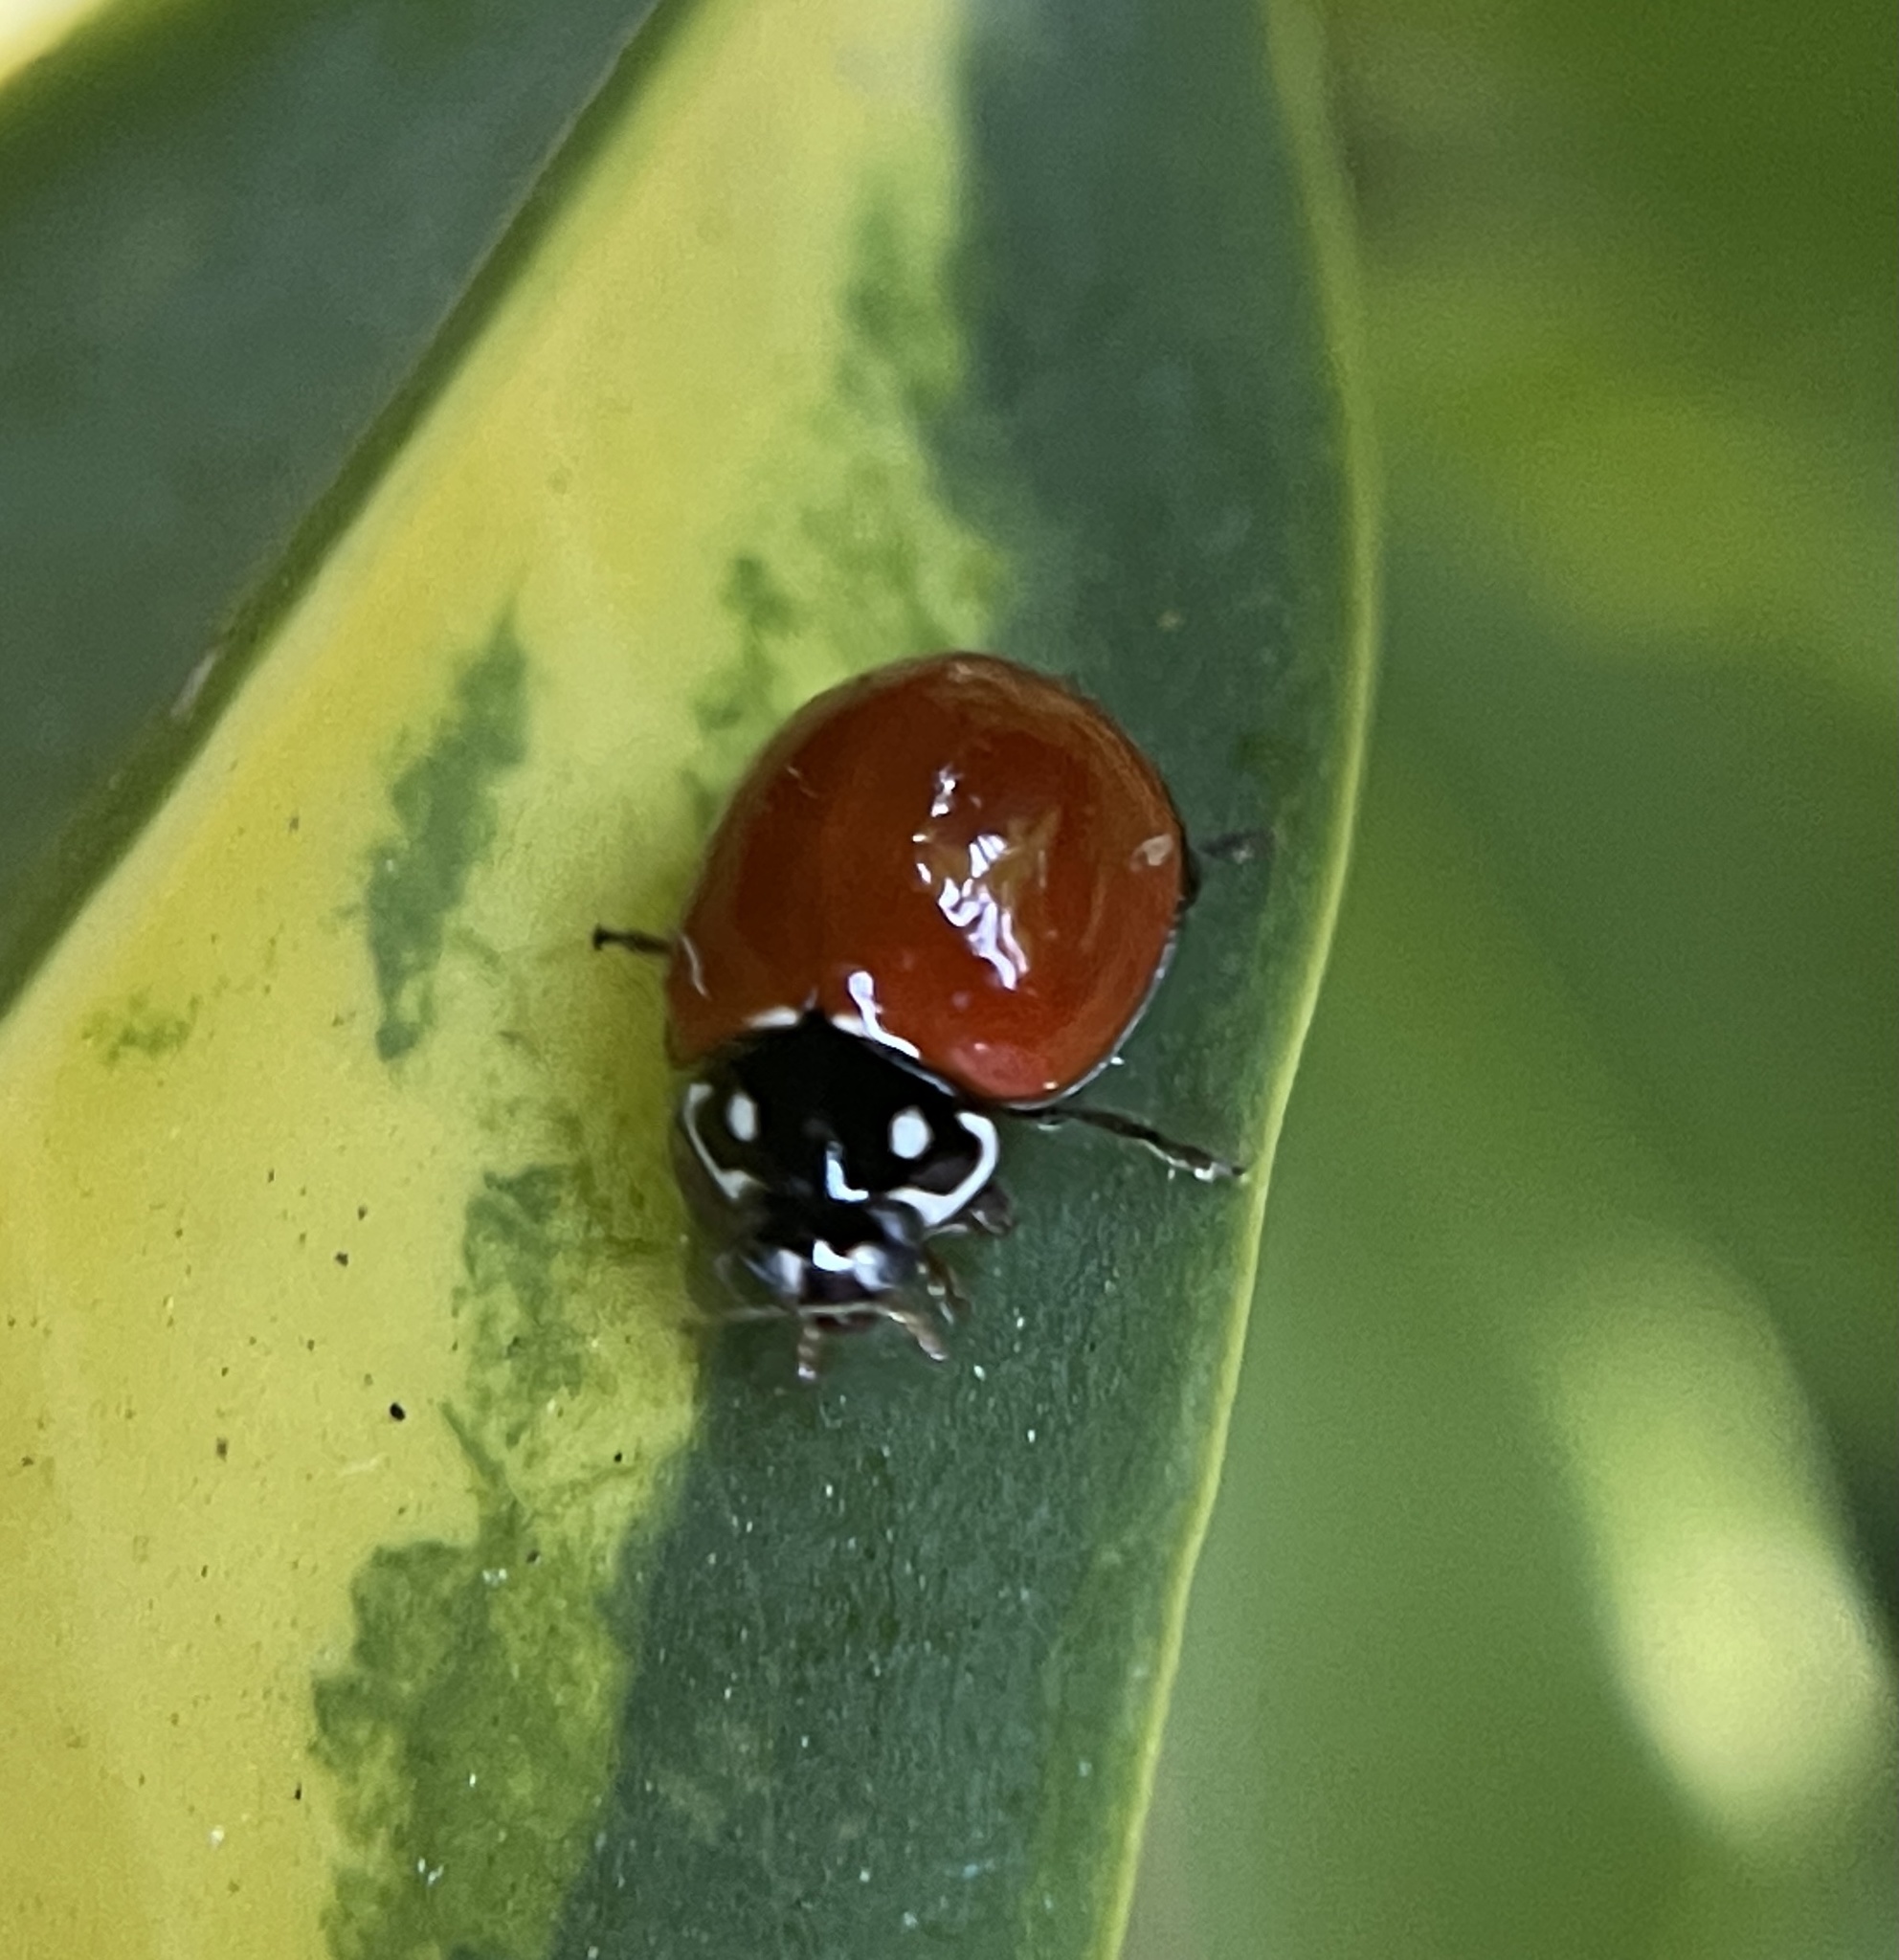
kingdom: Animalia
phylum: Arthropoda
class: Insecta
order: Coleoptera
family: Coccinellidae
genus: Cycloneda
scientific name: Cycloneda sanguinea
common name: Ladybird beetle
